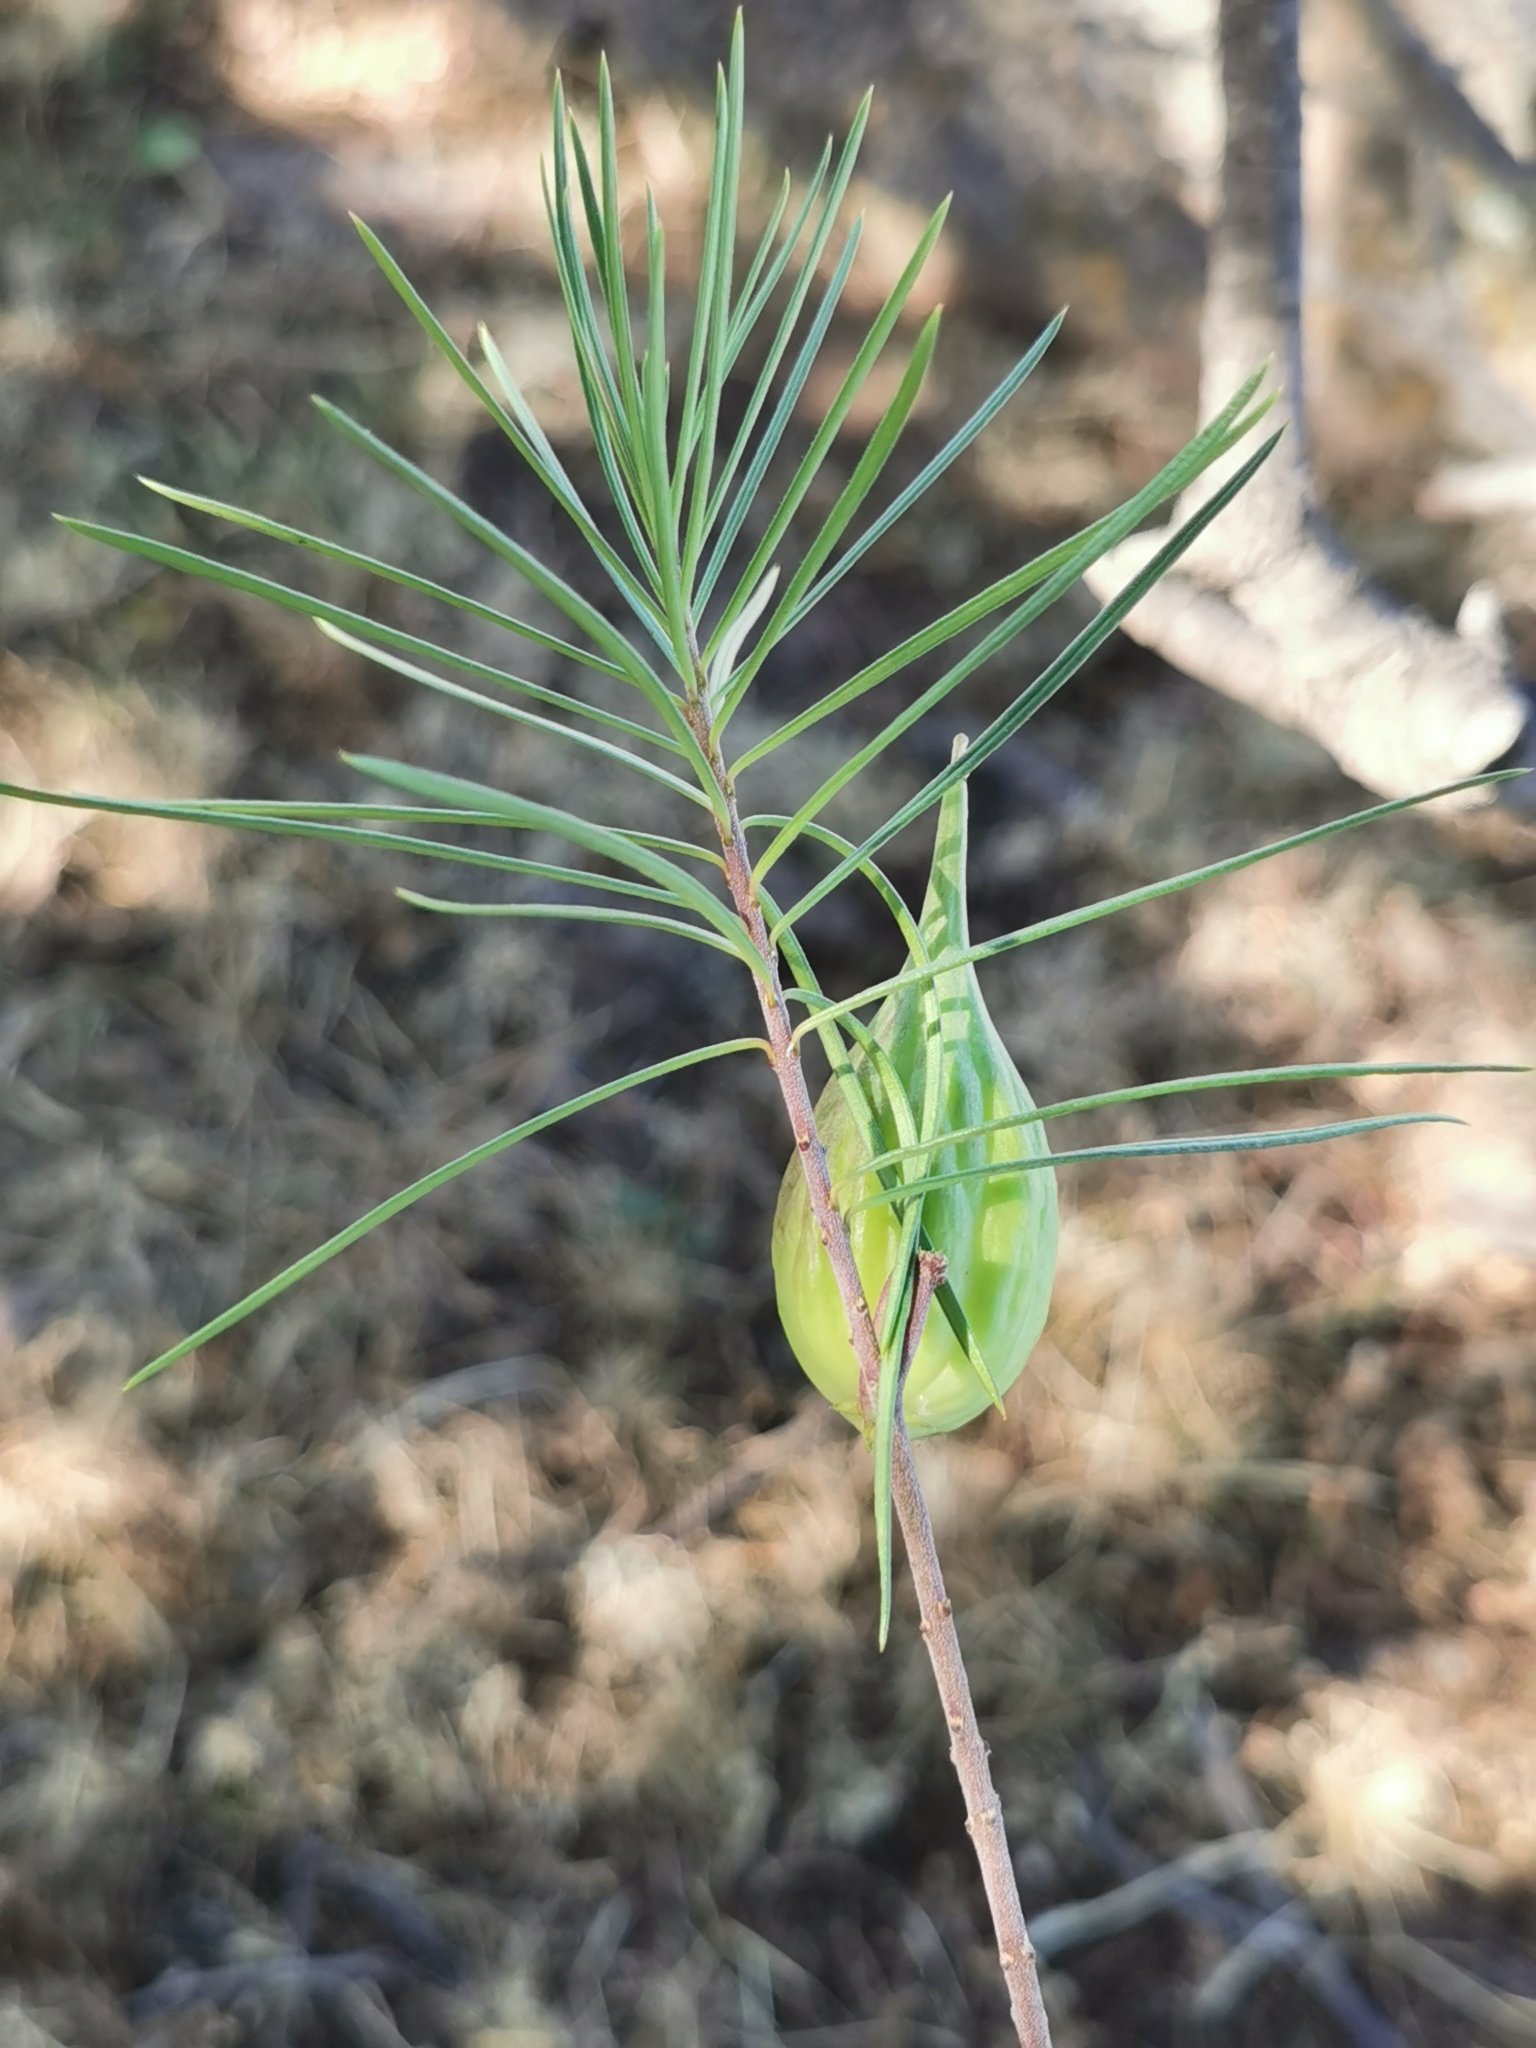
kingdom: Plantae
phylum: Tracheophyta
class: Magnoliopsida
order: Gentianales
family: Apocynaceae
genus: Asclepias
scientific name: Asclepias linaria
